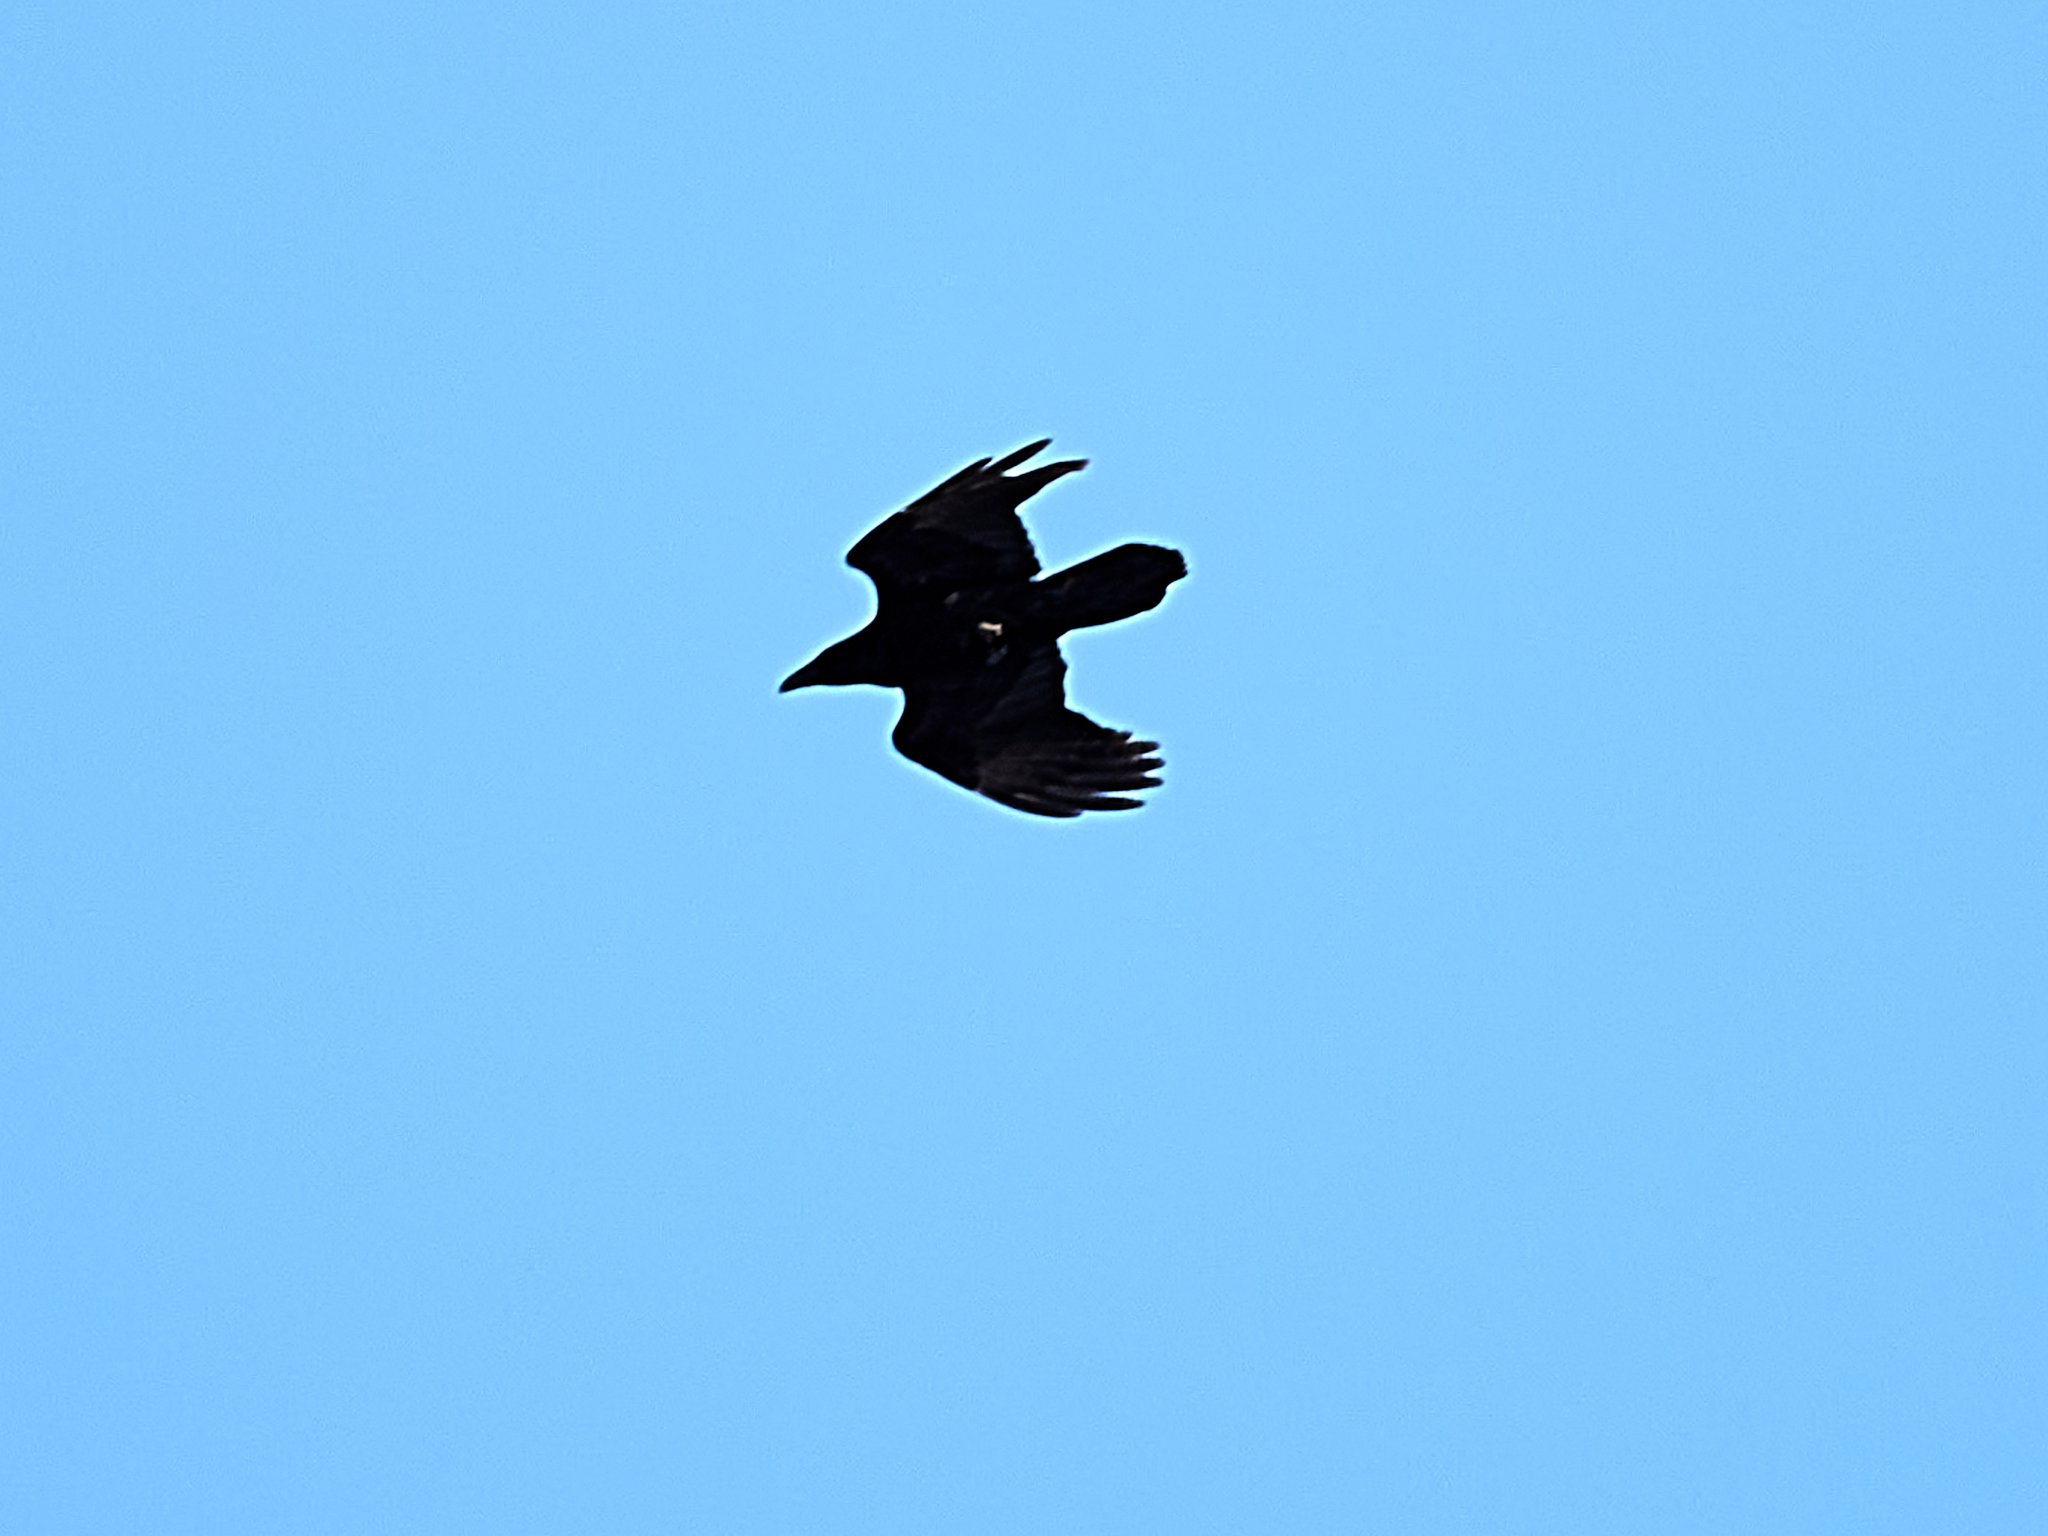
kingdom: Animalia
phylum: Chordata
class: Aves
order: Passeriformes
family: Corvidae
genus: Corvus
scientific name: Corvus corax
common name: Common raven
